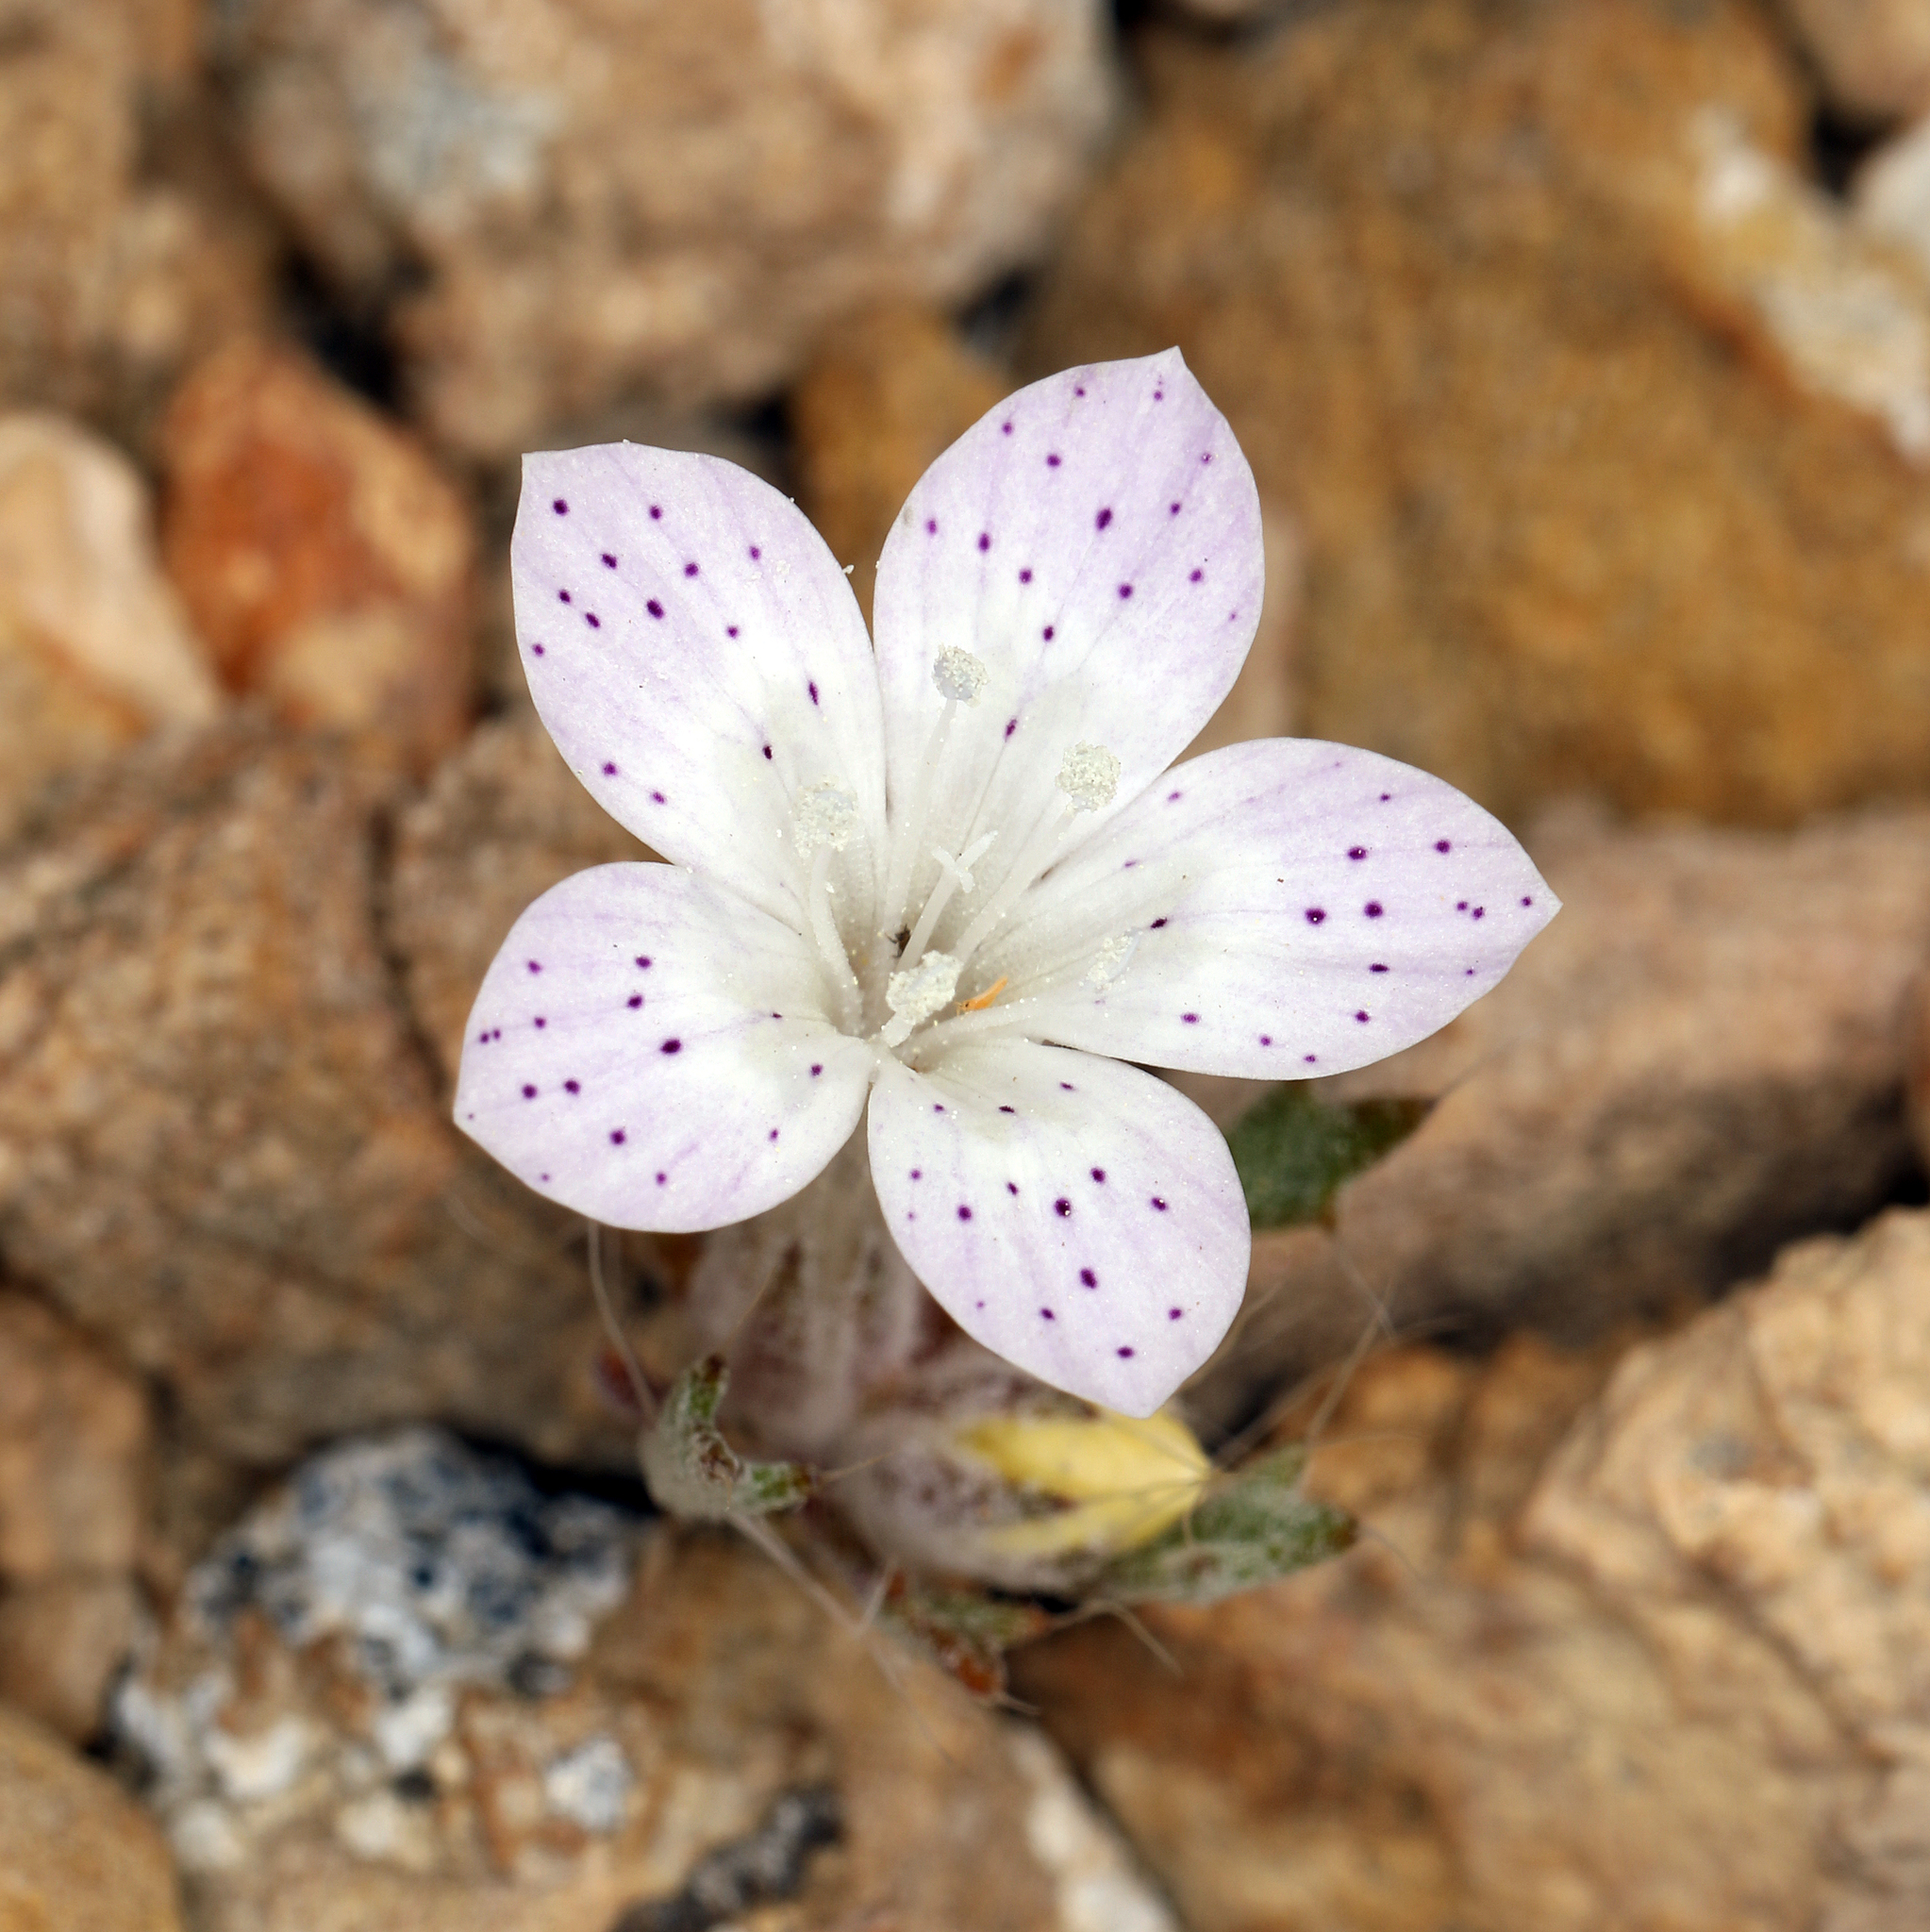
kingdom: Plantae
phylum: Tracheophyta
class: Magnoliopsida
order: Ericales
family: Polemoniaceae
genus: Langloisia
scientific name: Langloisia setosissima
